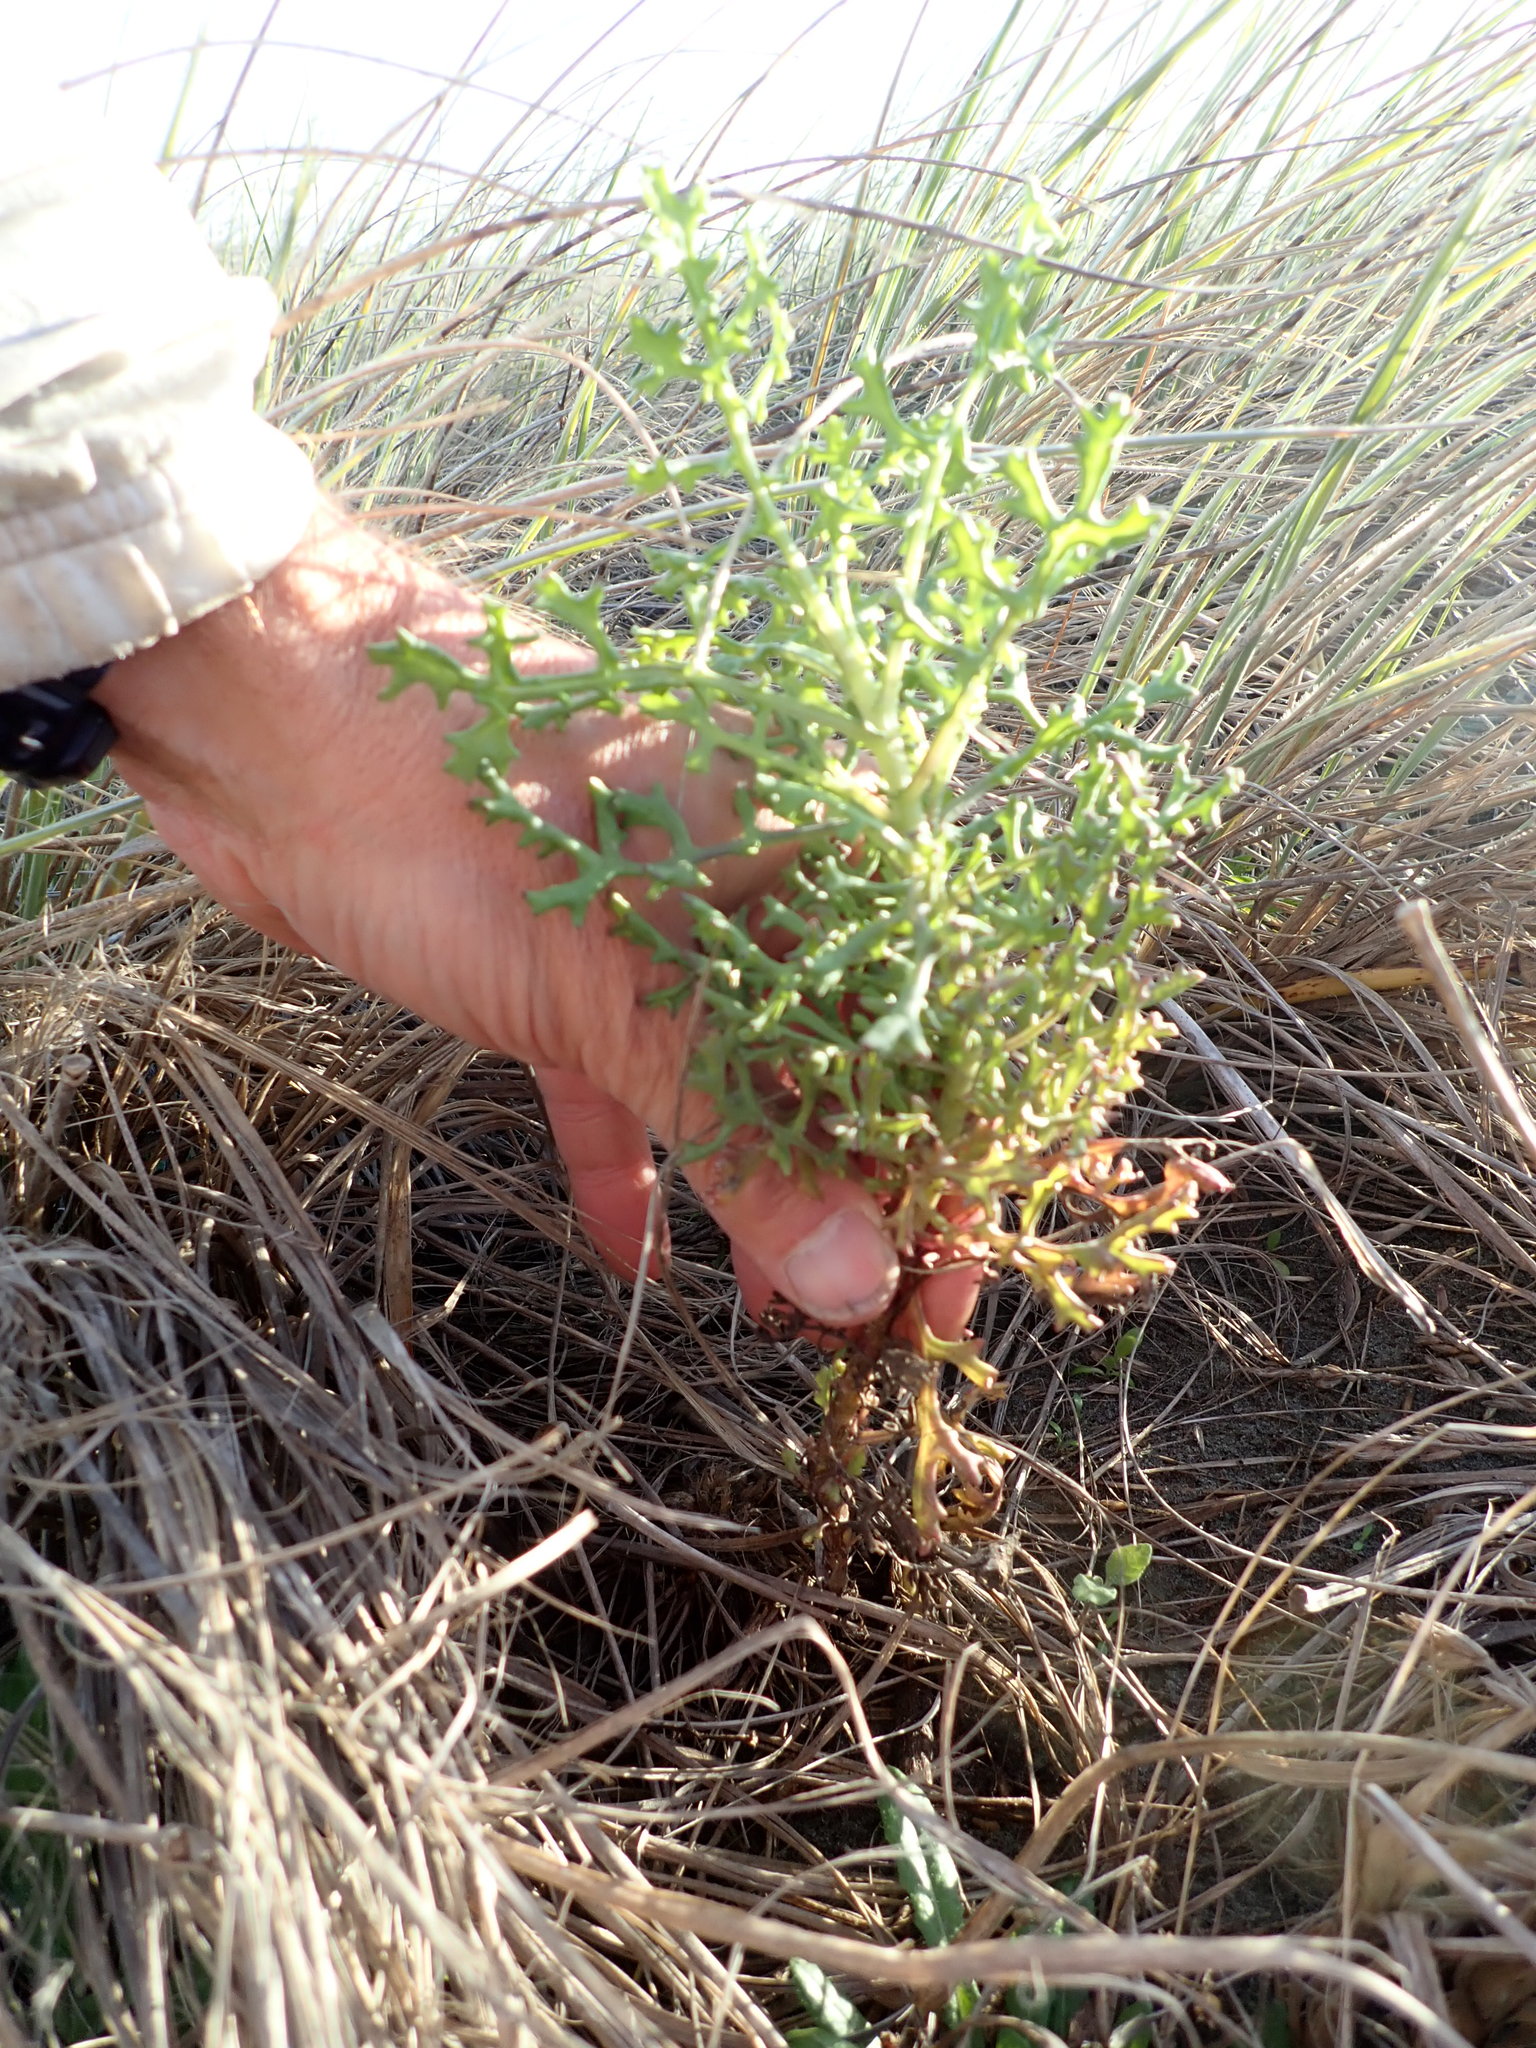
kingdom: Plantae
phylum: Tracheophyta
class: Magnoliopsida
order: Asterales
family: Asteraceae
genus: Senecio
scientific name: Senecio elegans
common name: Purple groundsel
